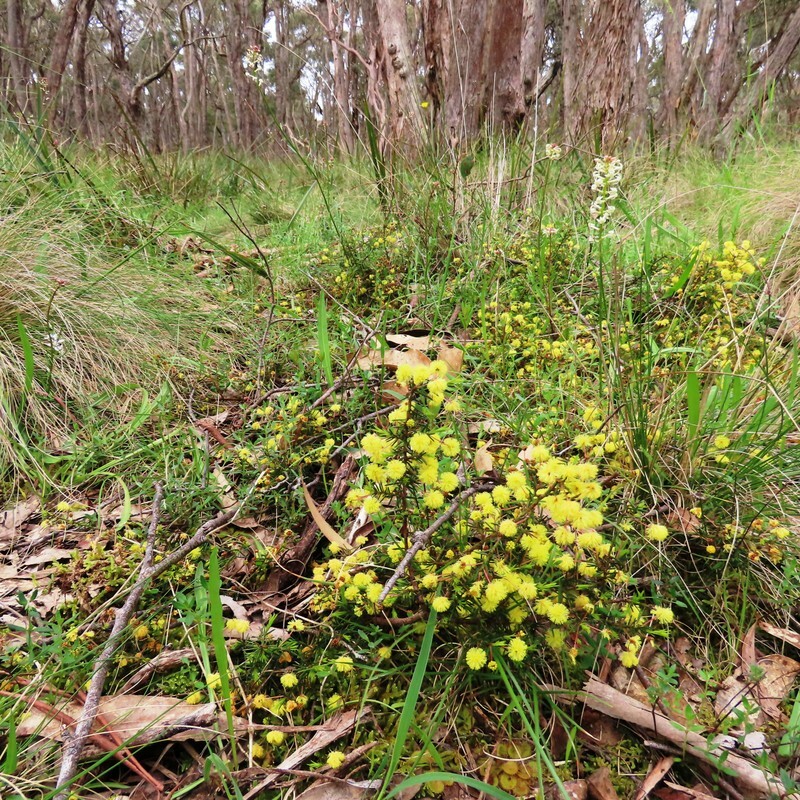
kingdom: Plantae
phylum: Tracheophyta
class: Magnoliopsida
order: Fabales
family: Fabaceae
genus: Acacia
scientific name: Acacia aculeatissima
